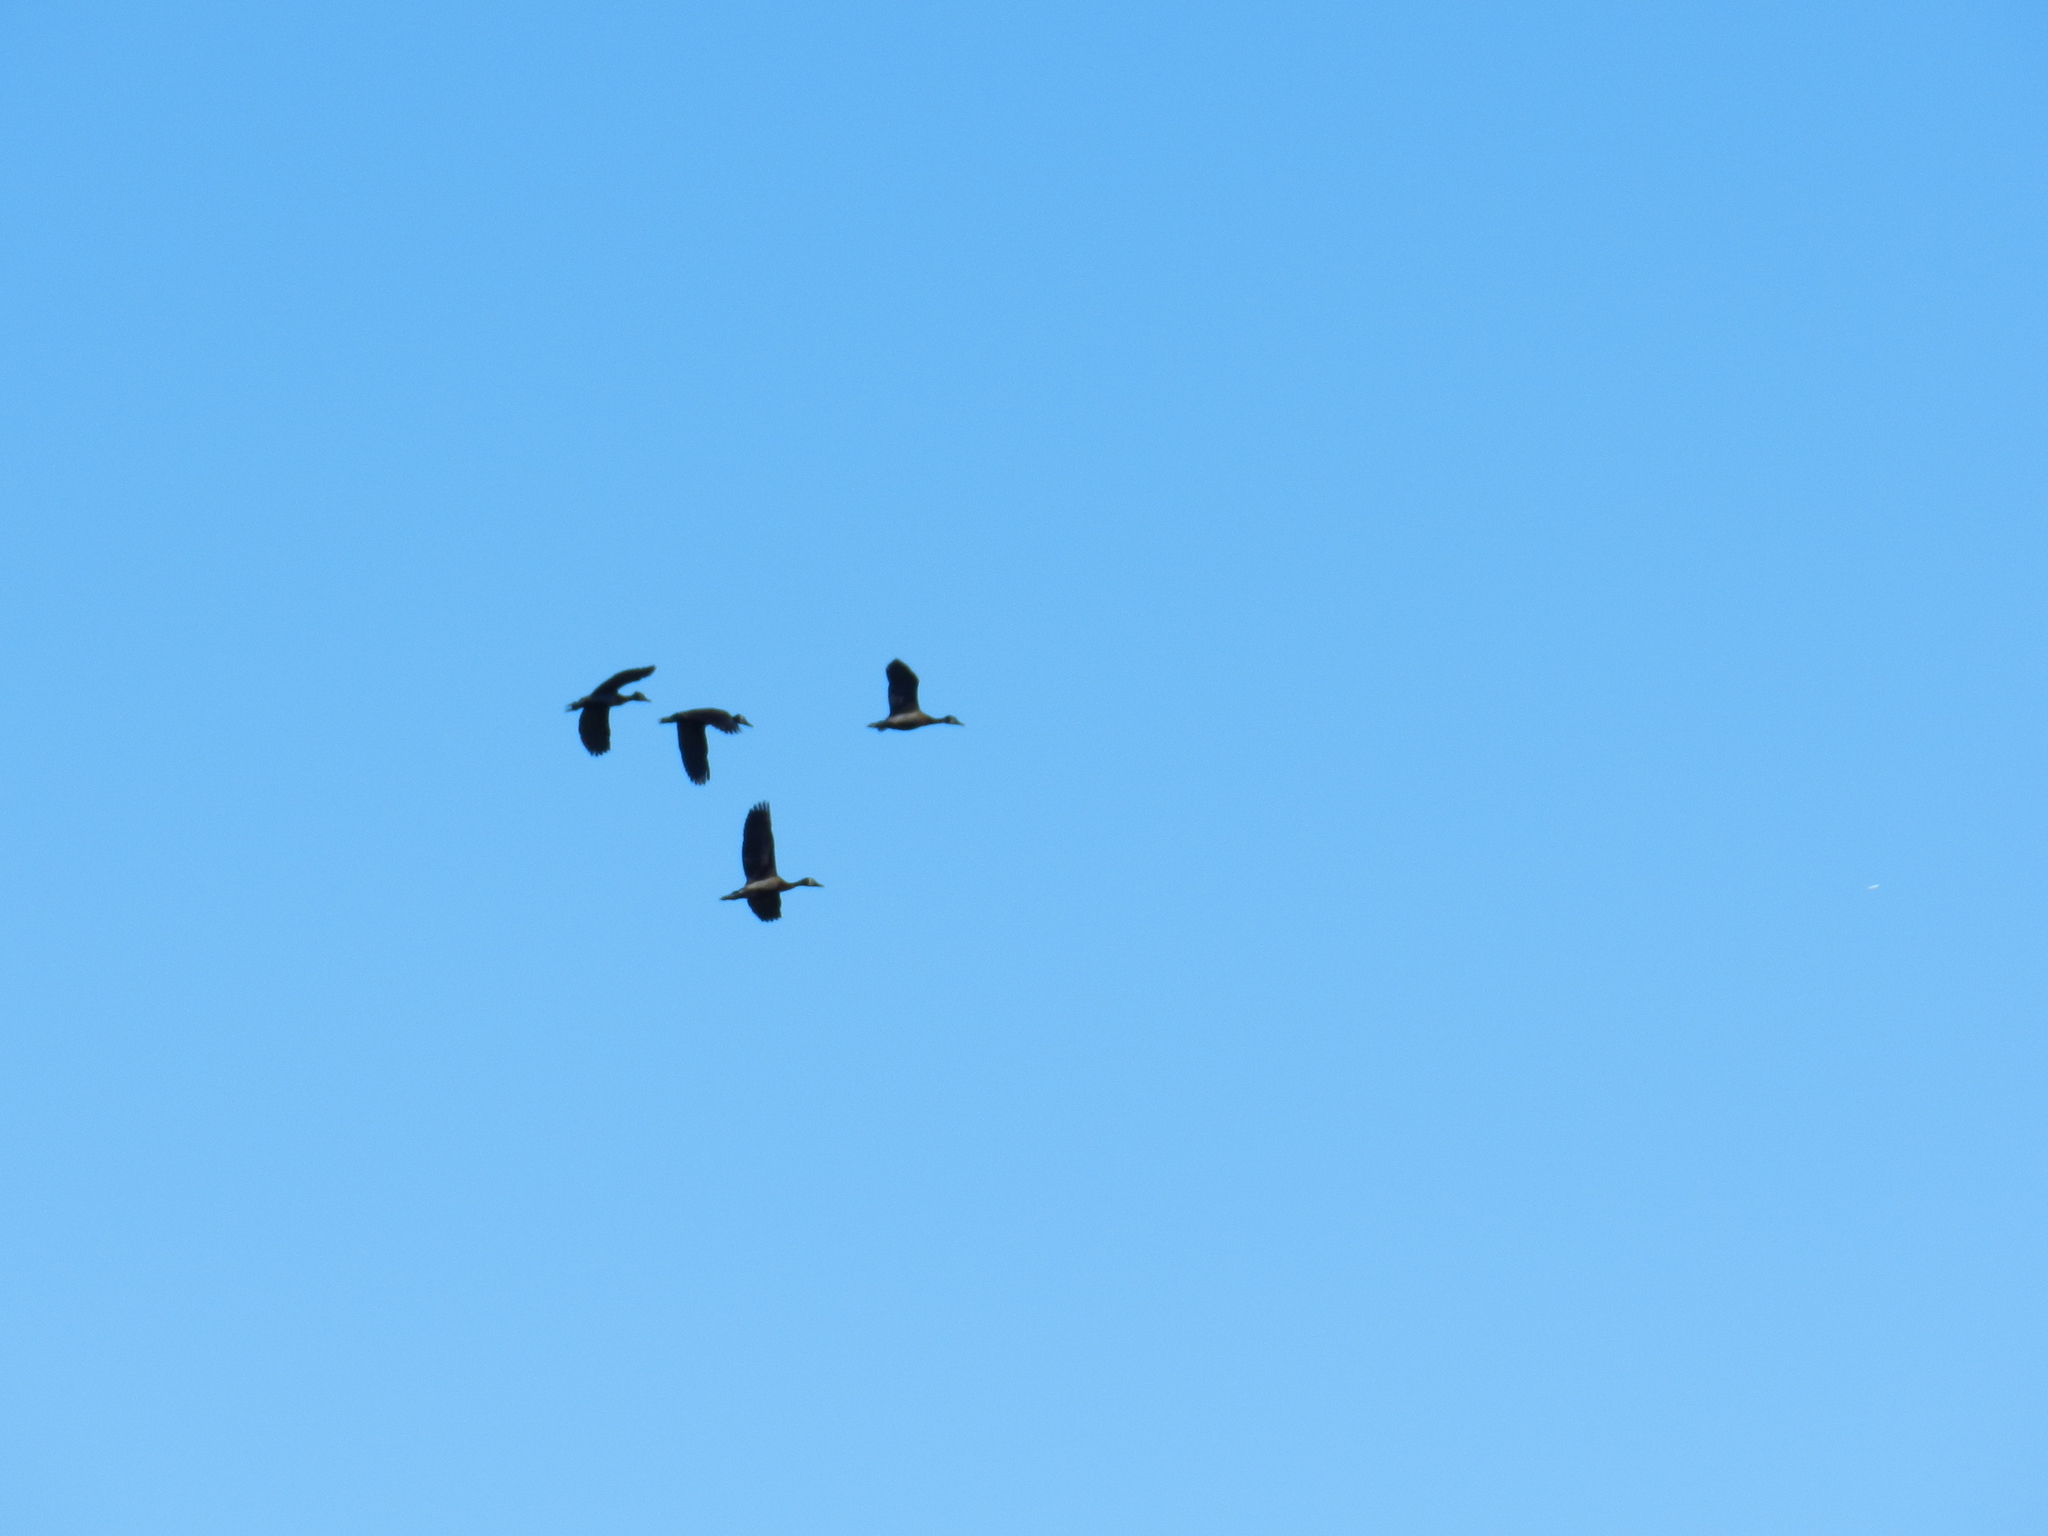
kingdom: Animalia
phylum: Chordata
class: Aves
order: Anseriformes
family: Anatidae
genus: Dendrocygna
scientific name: Dendrocygna viduata
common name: White-faced whistling duck
